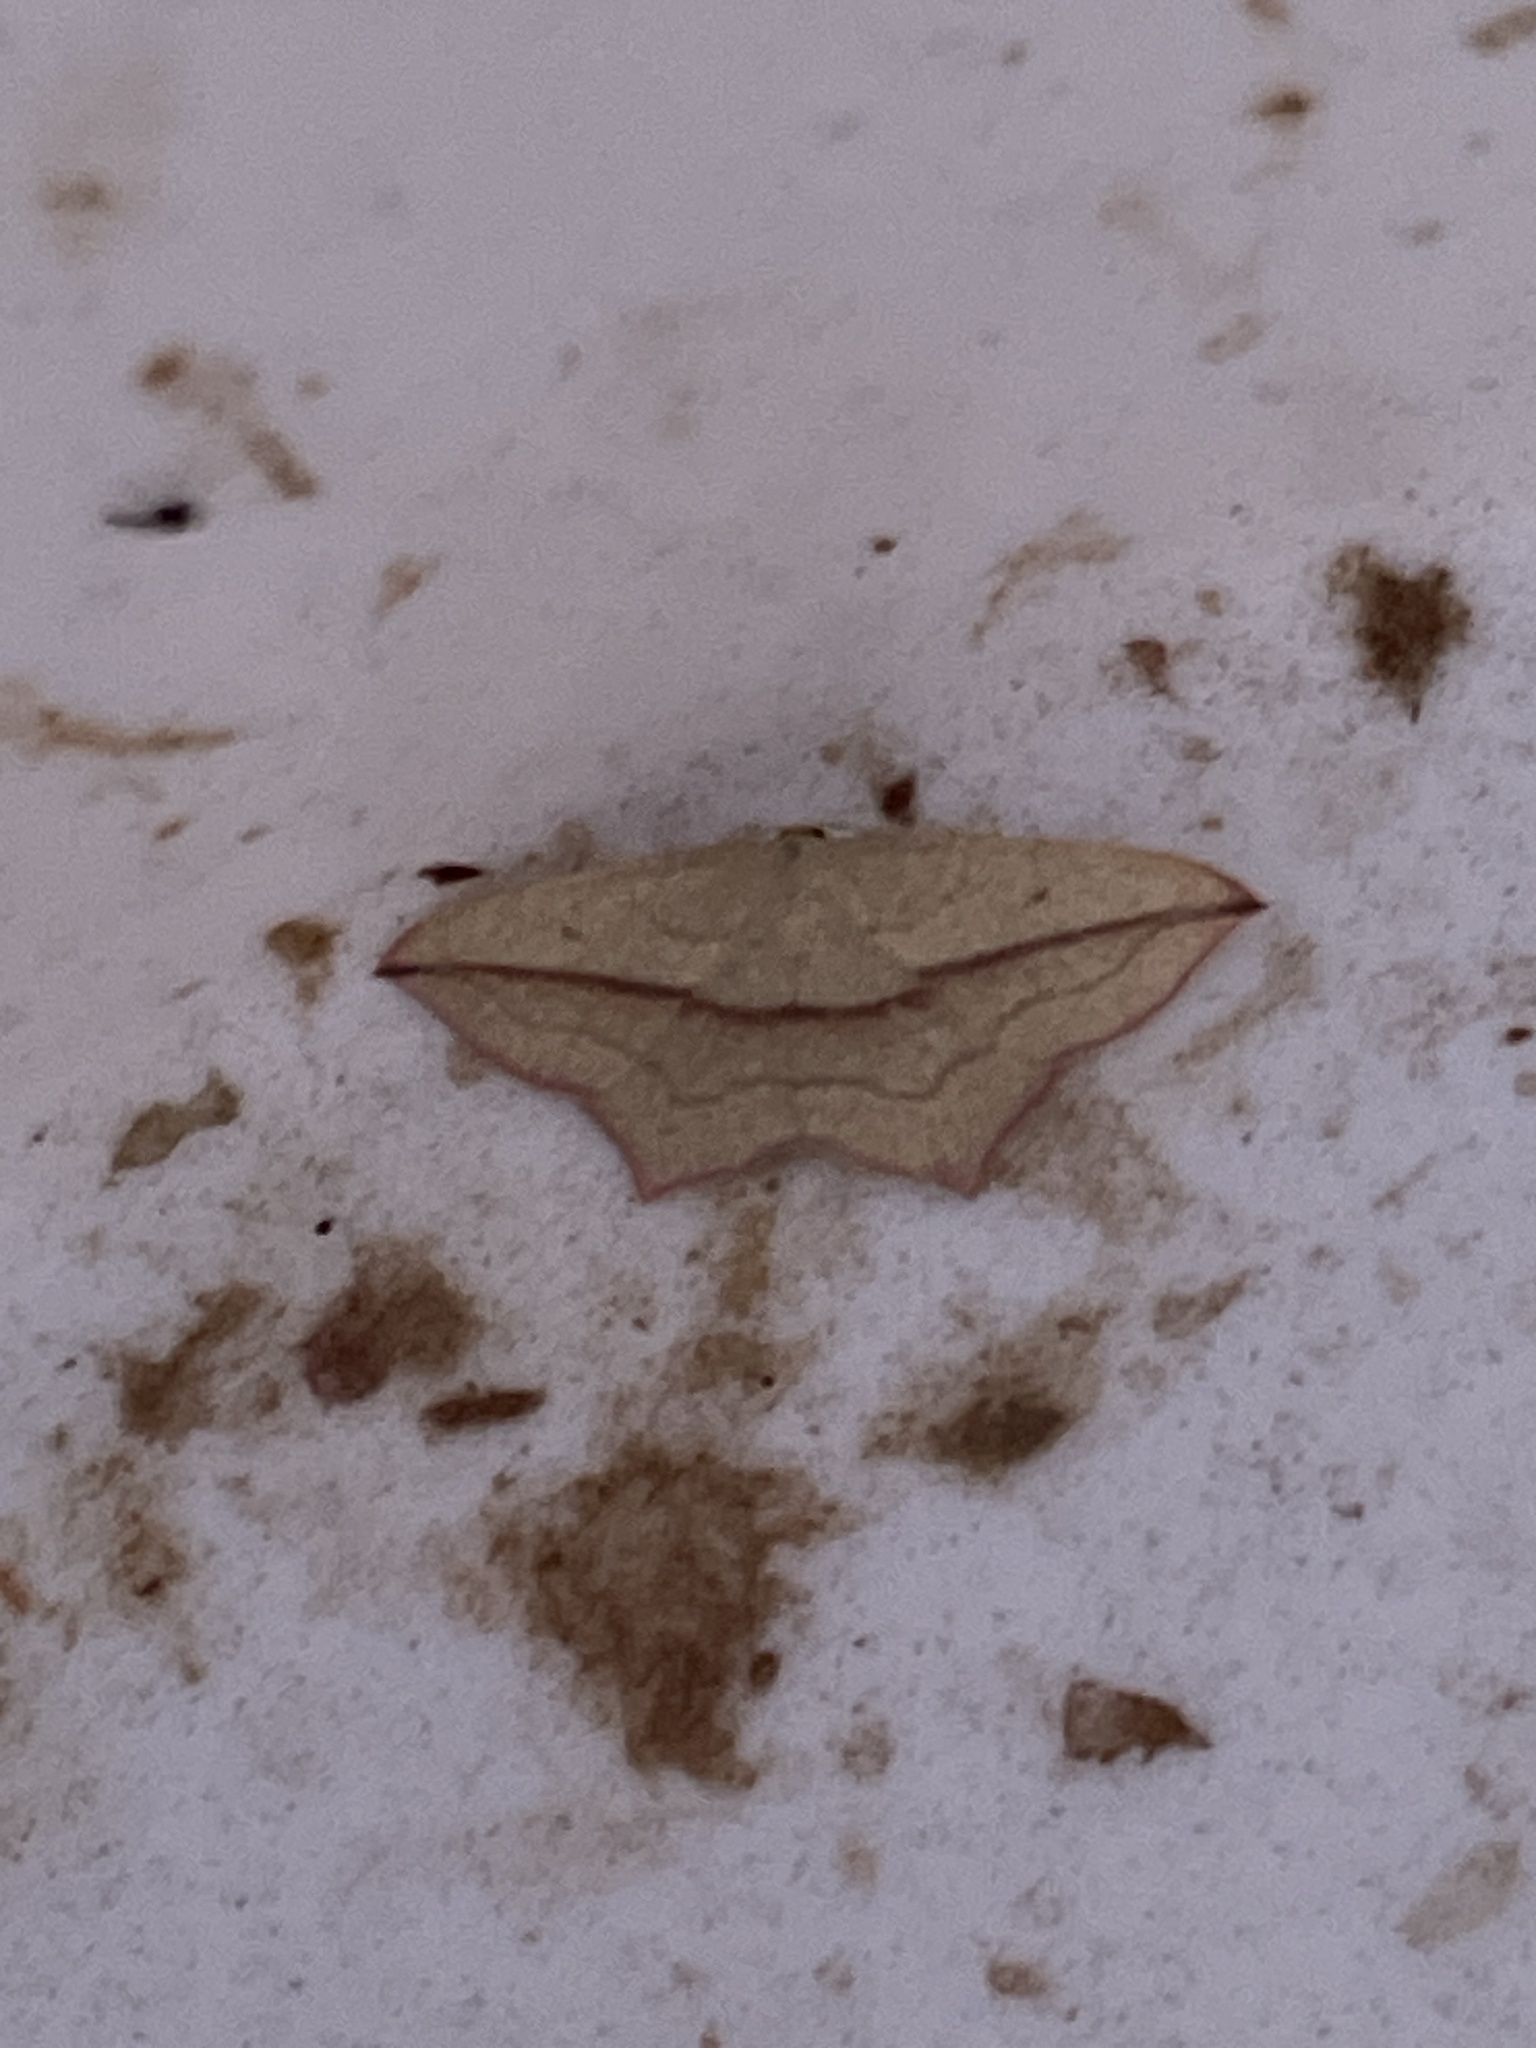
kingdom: Animalia
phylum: Arthropoda
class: Insecta
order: Lepidoptera
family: Geometridae
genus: Timandra
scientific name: Timandra comae
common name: Blood-vein
